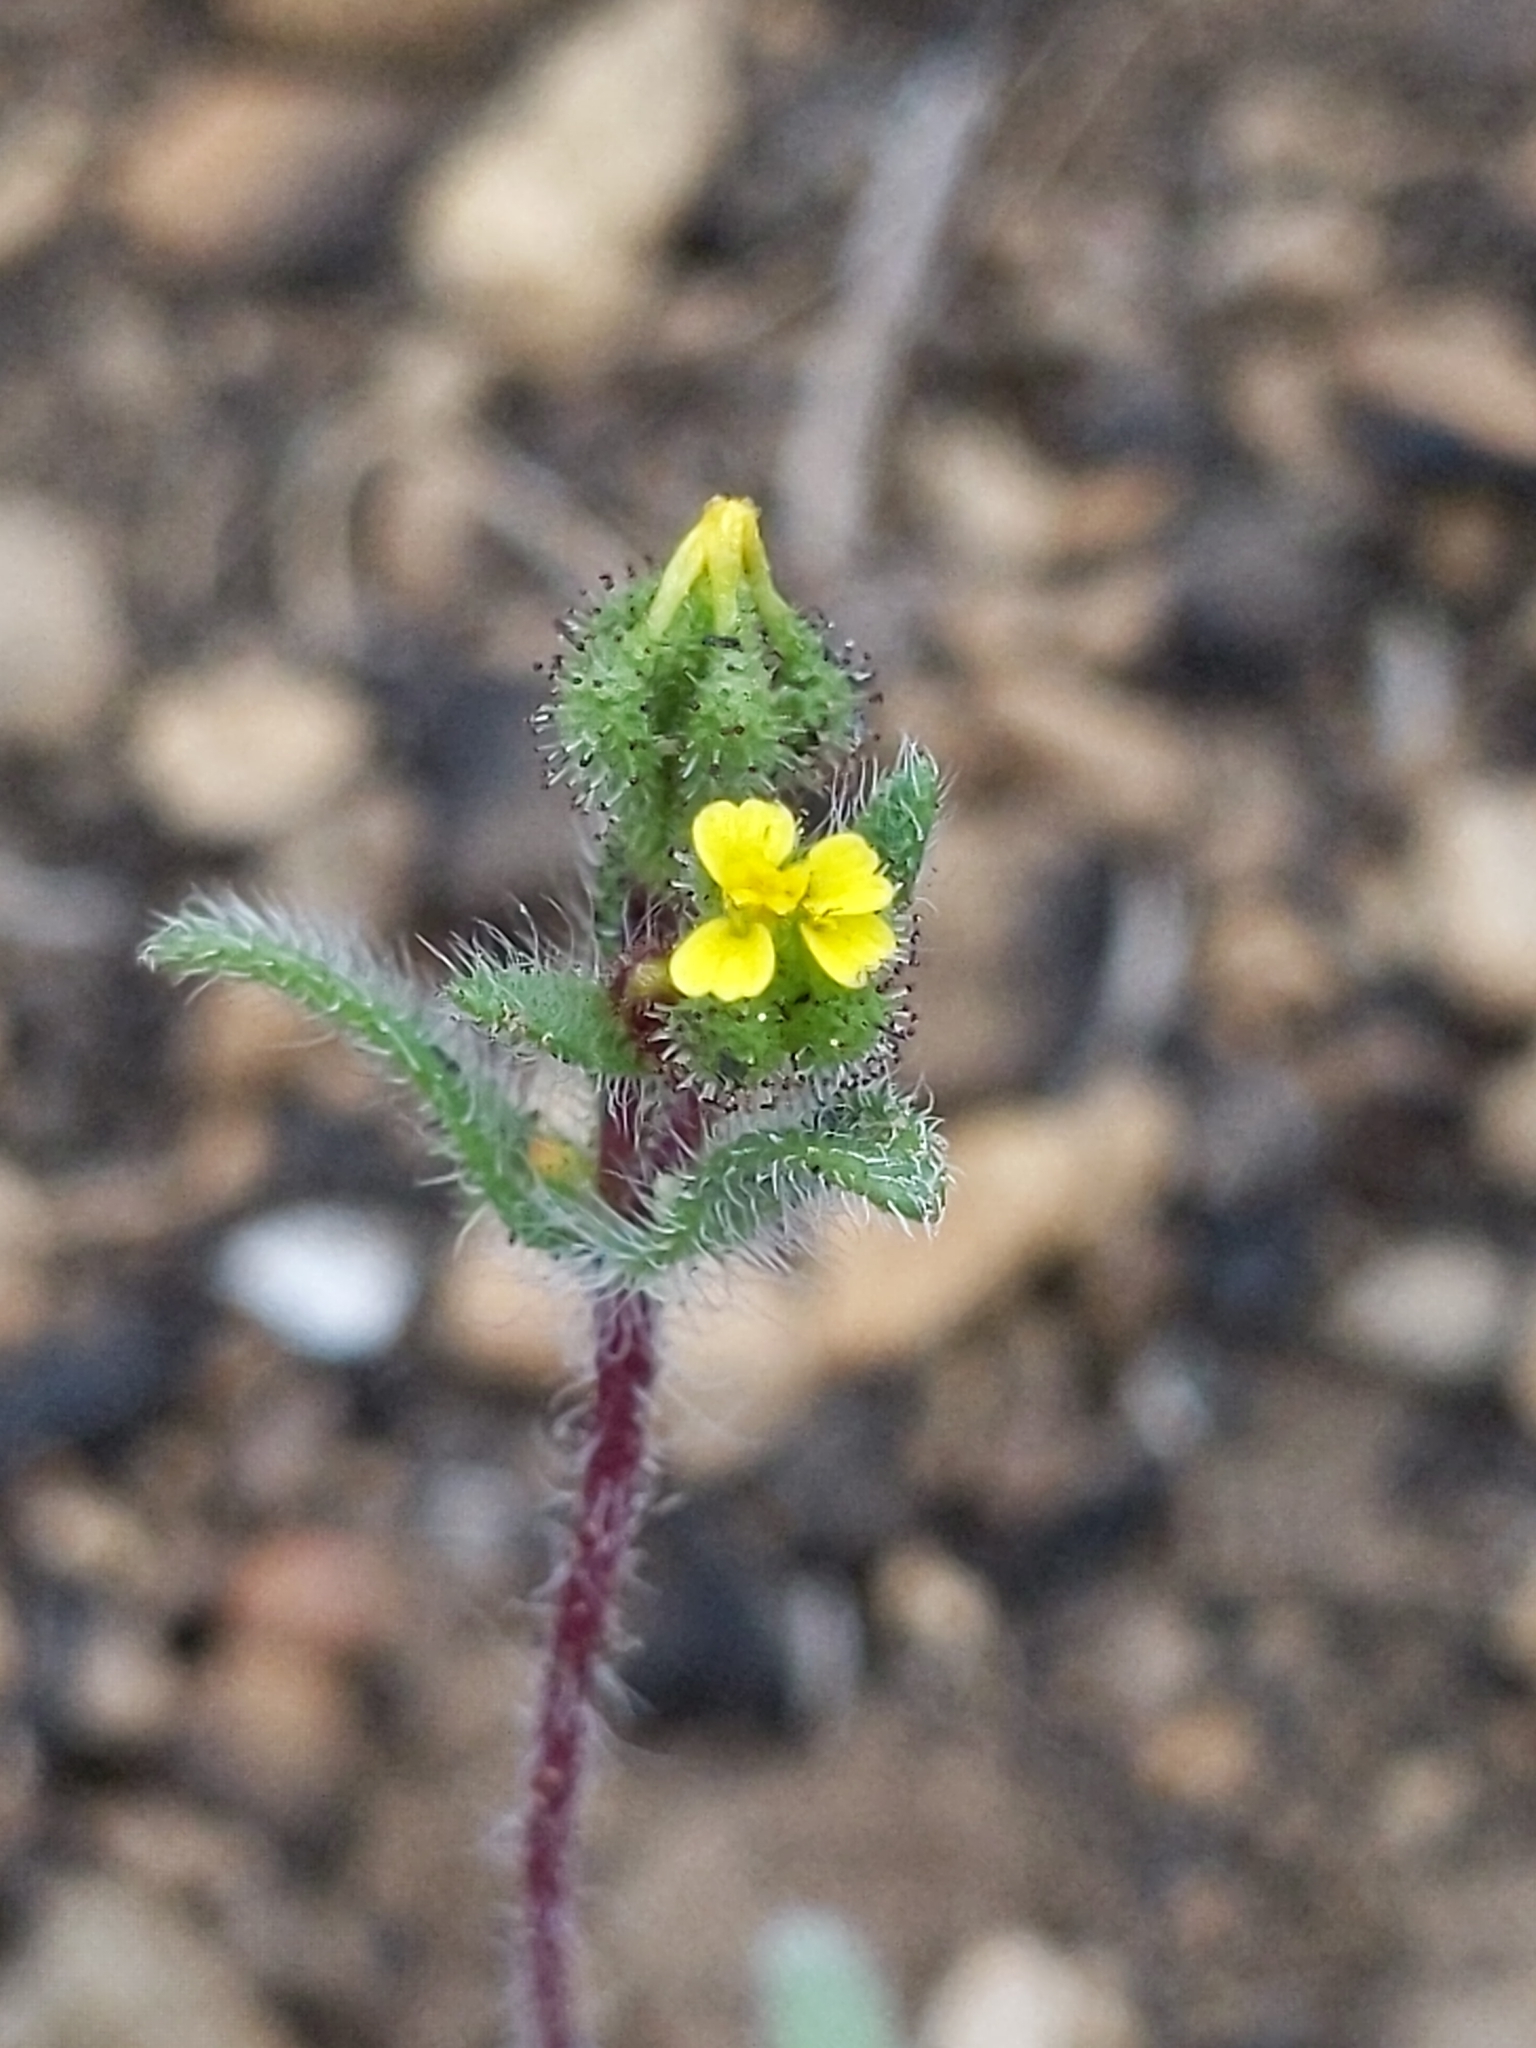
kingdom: Plantae
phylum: Tracheophyta
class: Magnoliopsida
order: Asterales
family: Asteraceae
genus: Hemizonella
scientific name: Hemizonella minima
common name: Opposite-leaved tarweed
